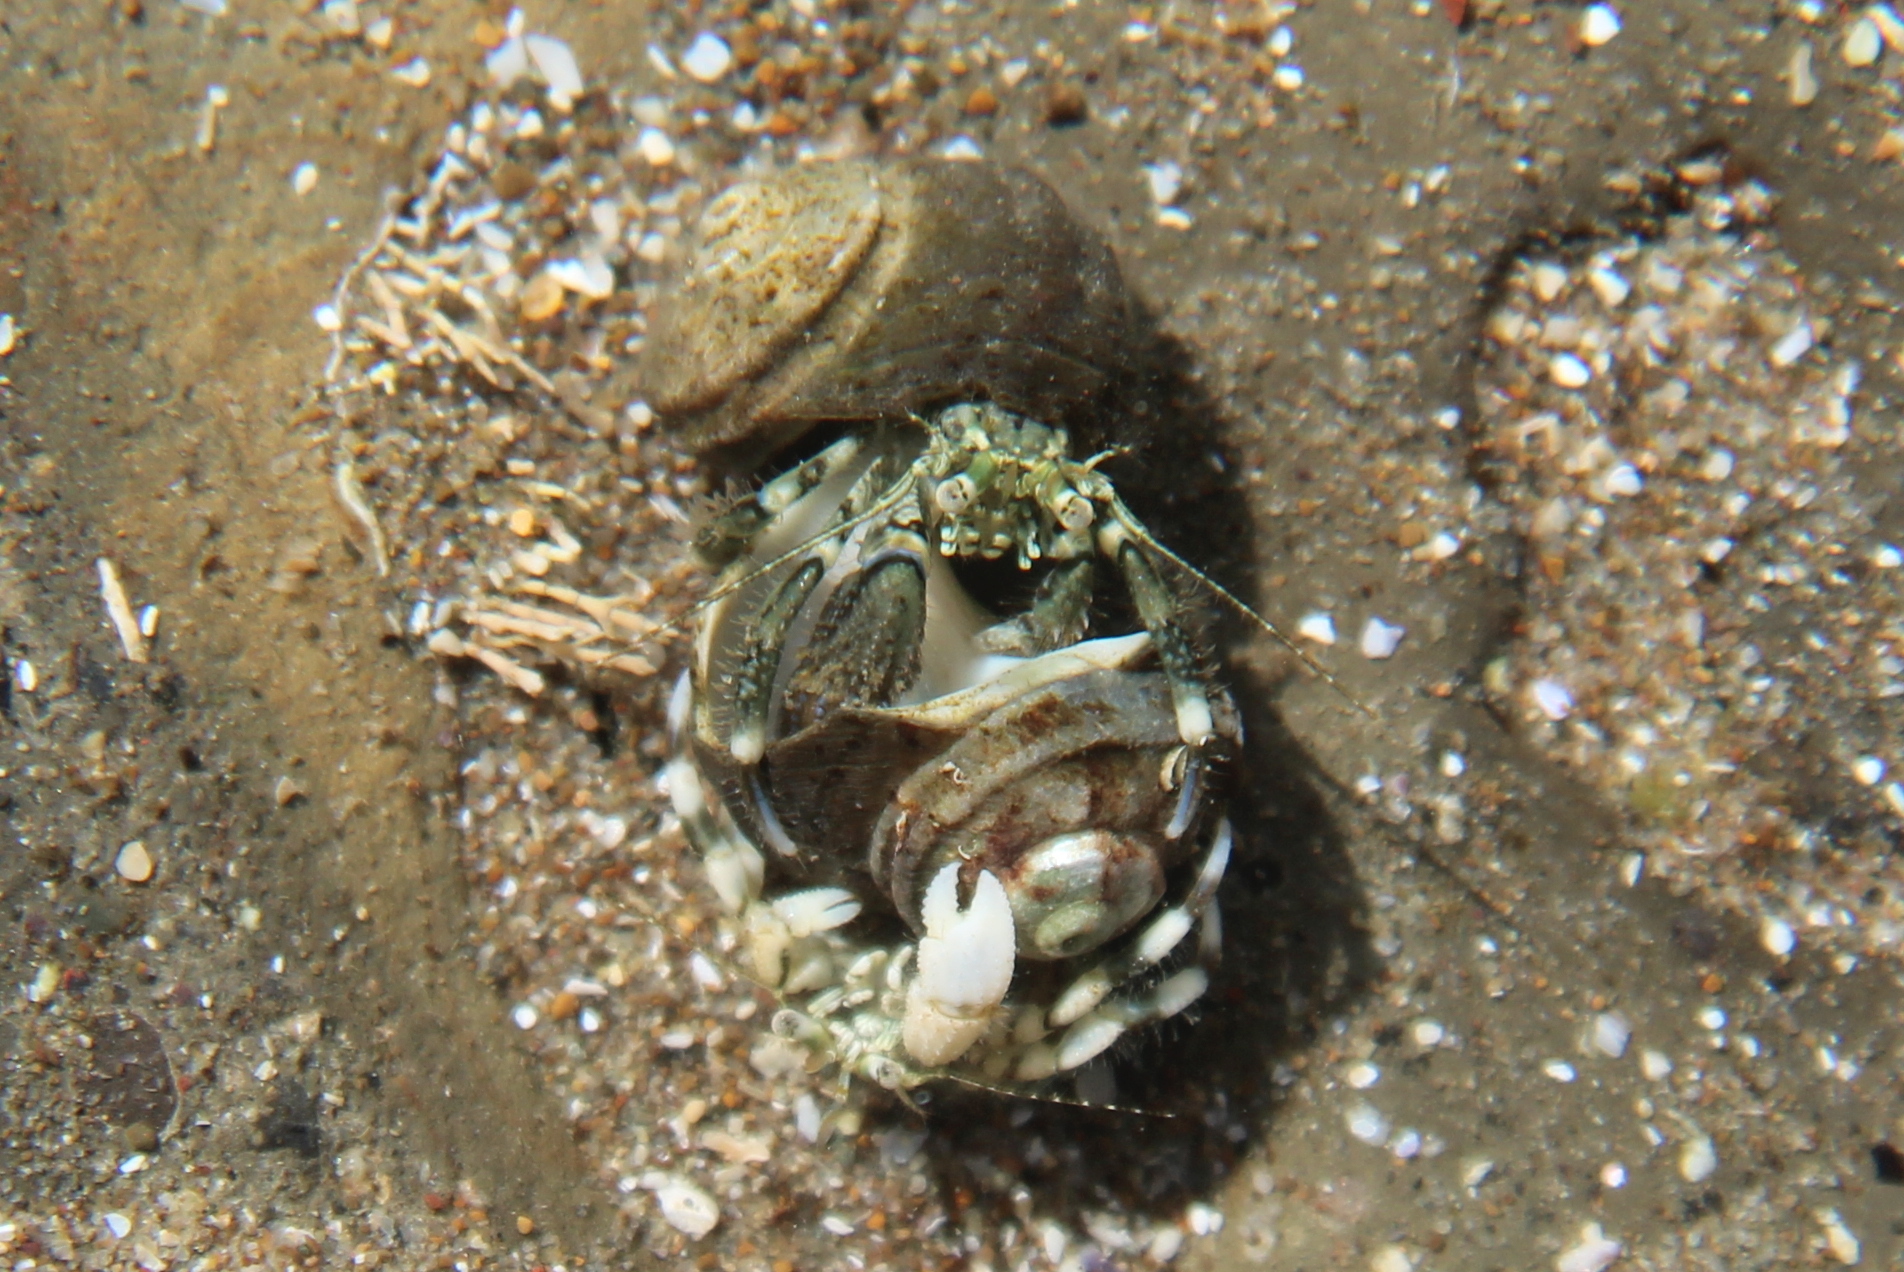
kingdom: Animalia
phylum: Arthropoda
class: Malacostraca
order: Decapoda
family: Paguridae
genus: Pagurus
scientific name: Pagurus novizealandiae
